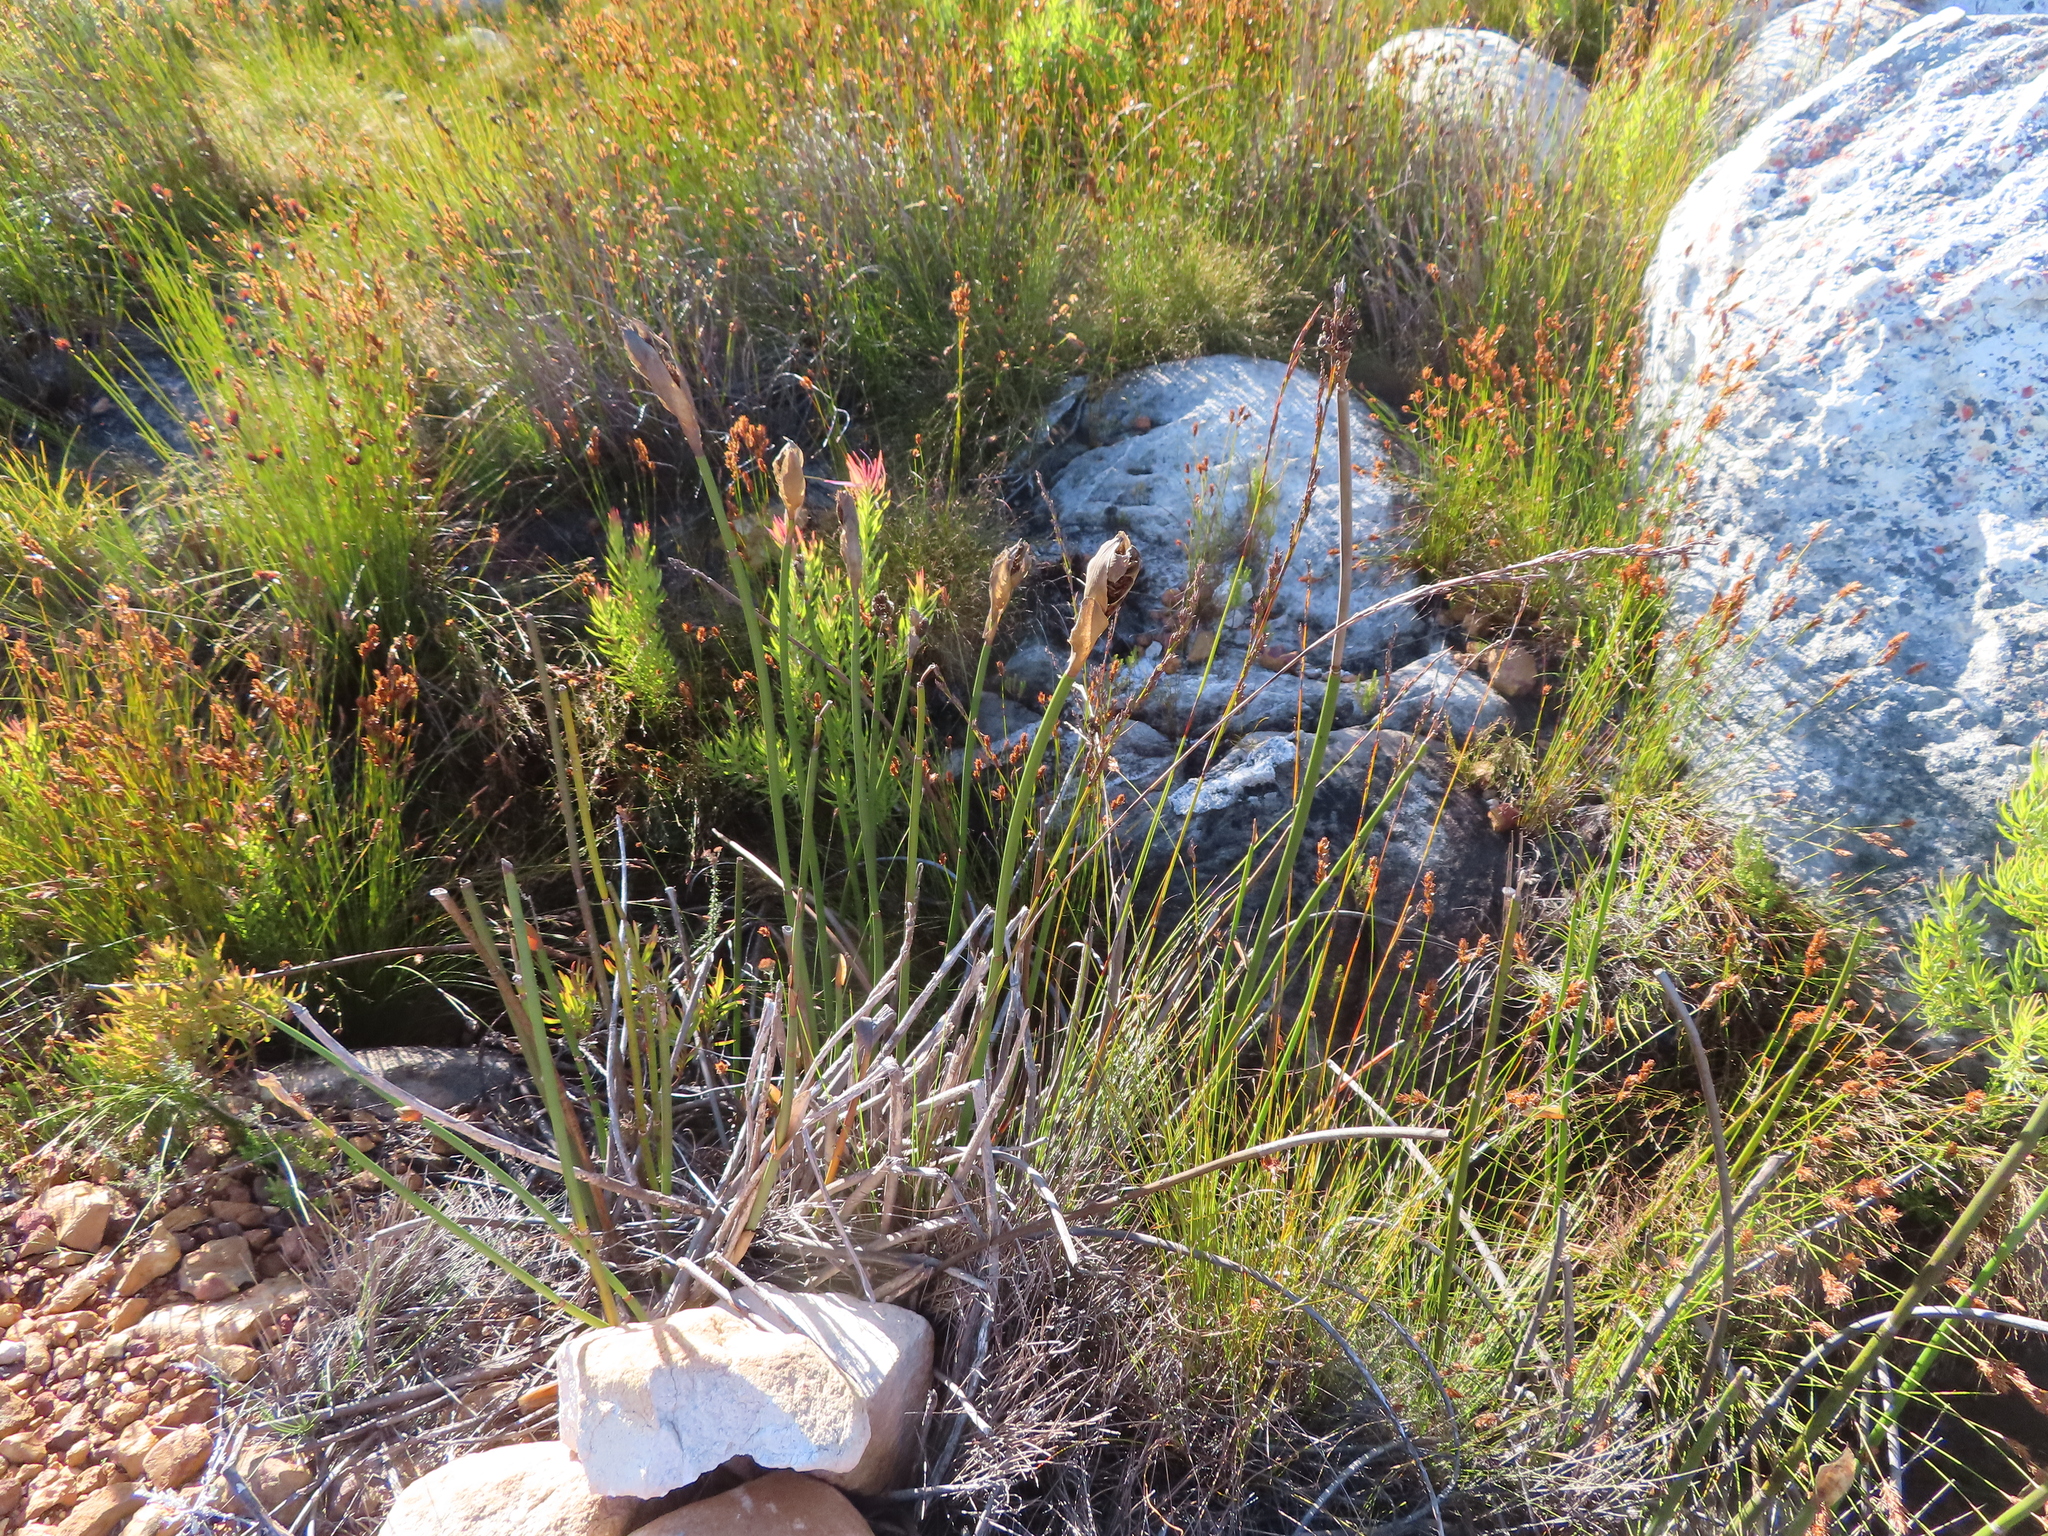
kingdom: Plantae
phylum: Tracheophyta
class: Liliopsida
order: Poales
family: Restionaceae
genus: Elegia
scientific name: Elegia mucronata
